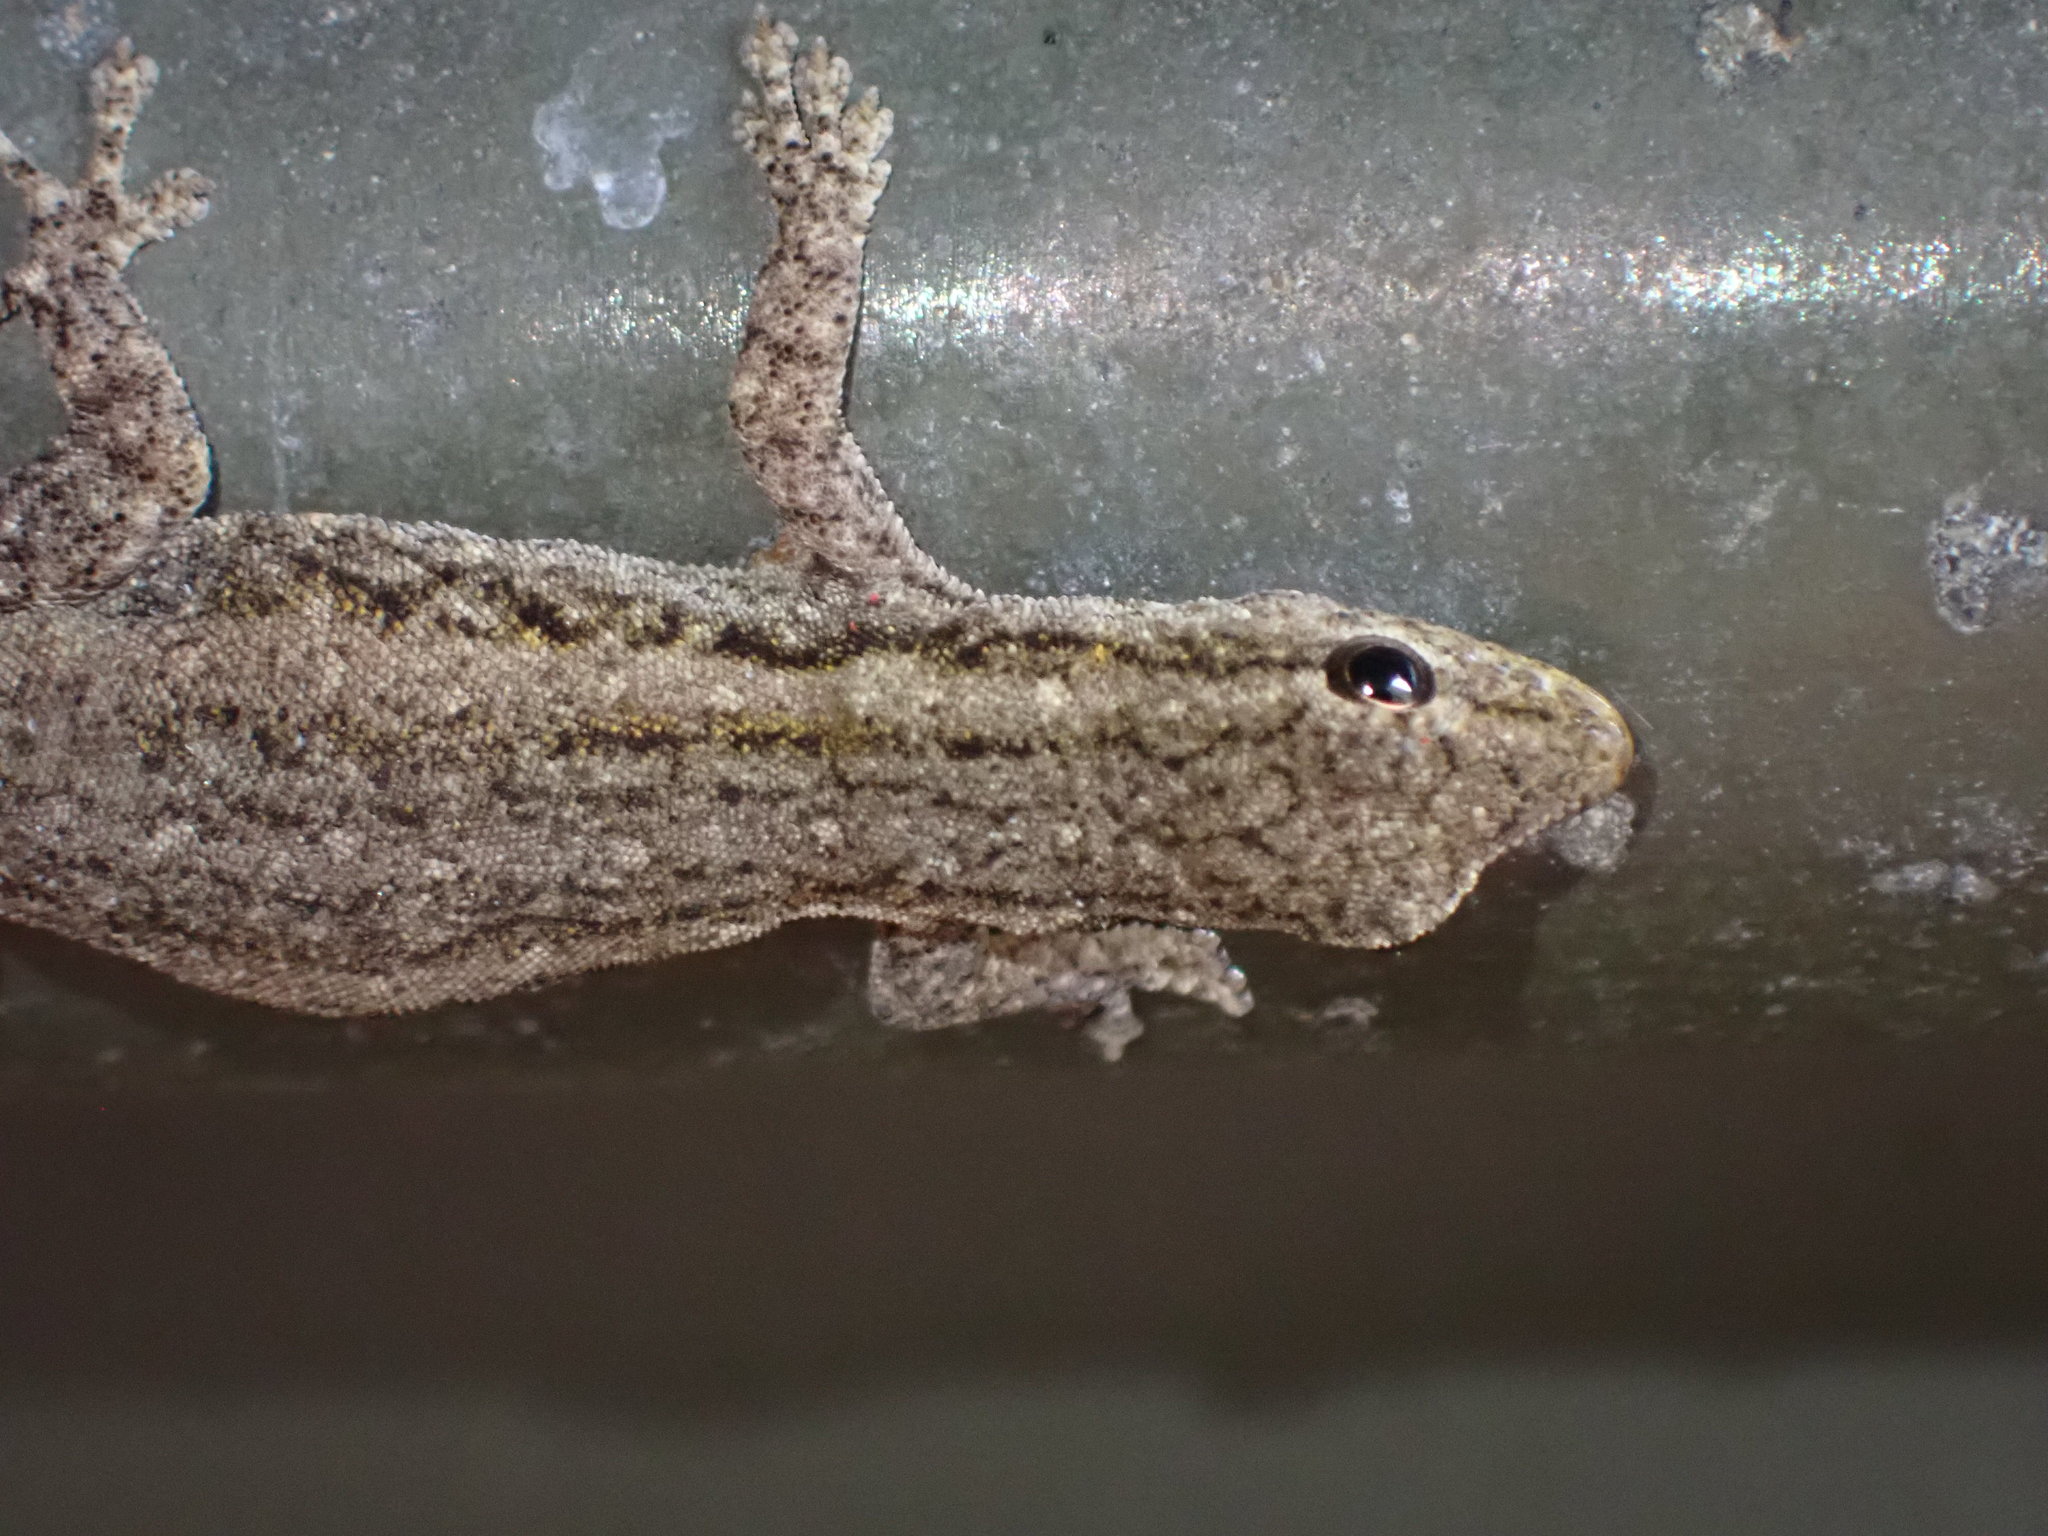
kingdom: Animalia
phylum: Chordata
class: Squamata
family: Gekkonidae
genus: Lygodactylus
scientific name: Lygodactylus capensis
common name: Cape dwarf gecko
